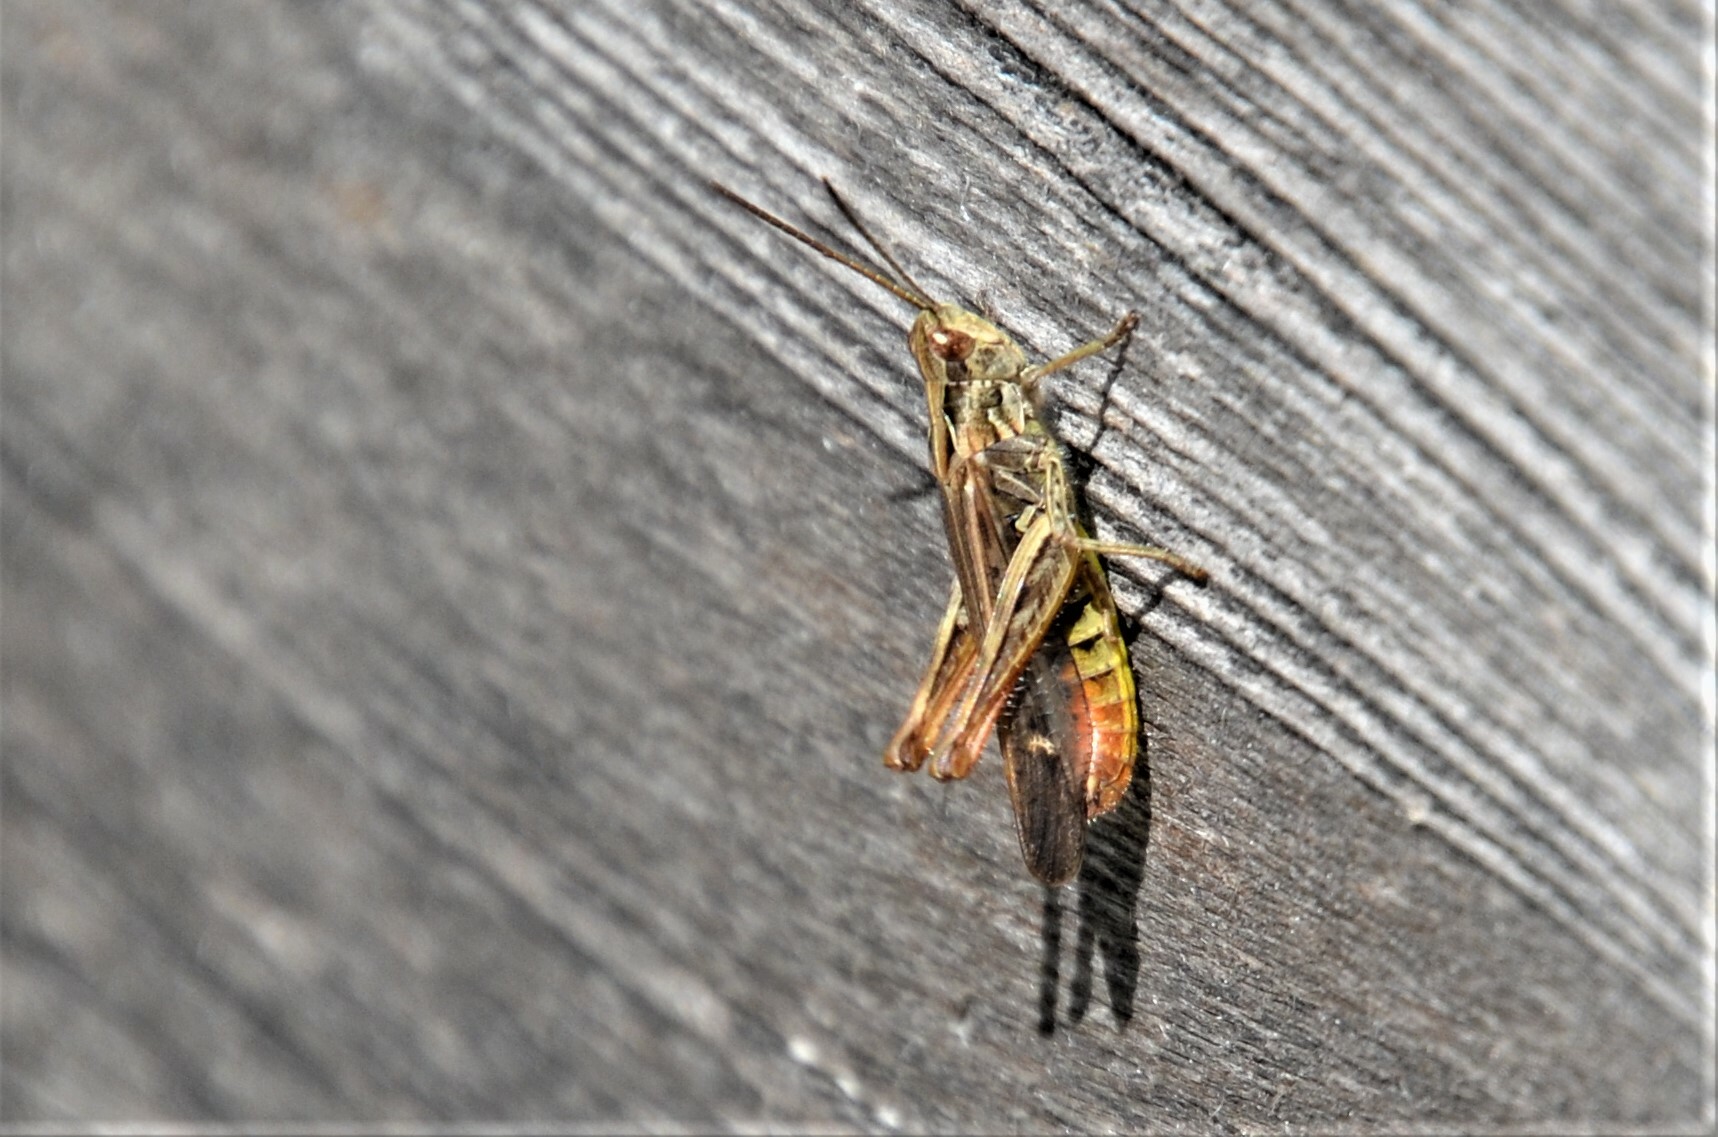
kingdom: Animalia
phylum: Arthropoda
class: Insecta
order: Orthoptera
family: Acrididae
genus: Chorthippus
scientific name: Chorthippus biguttulus
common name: Bow-winged grasshopper
